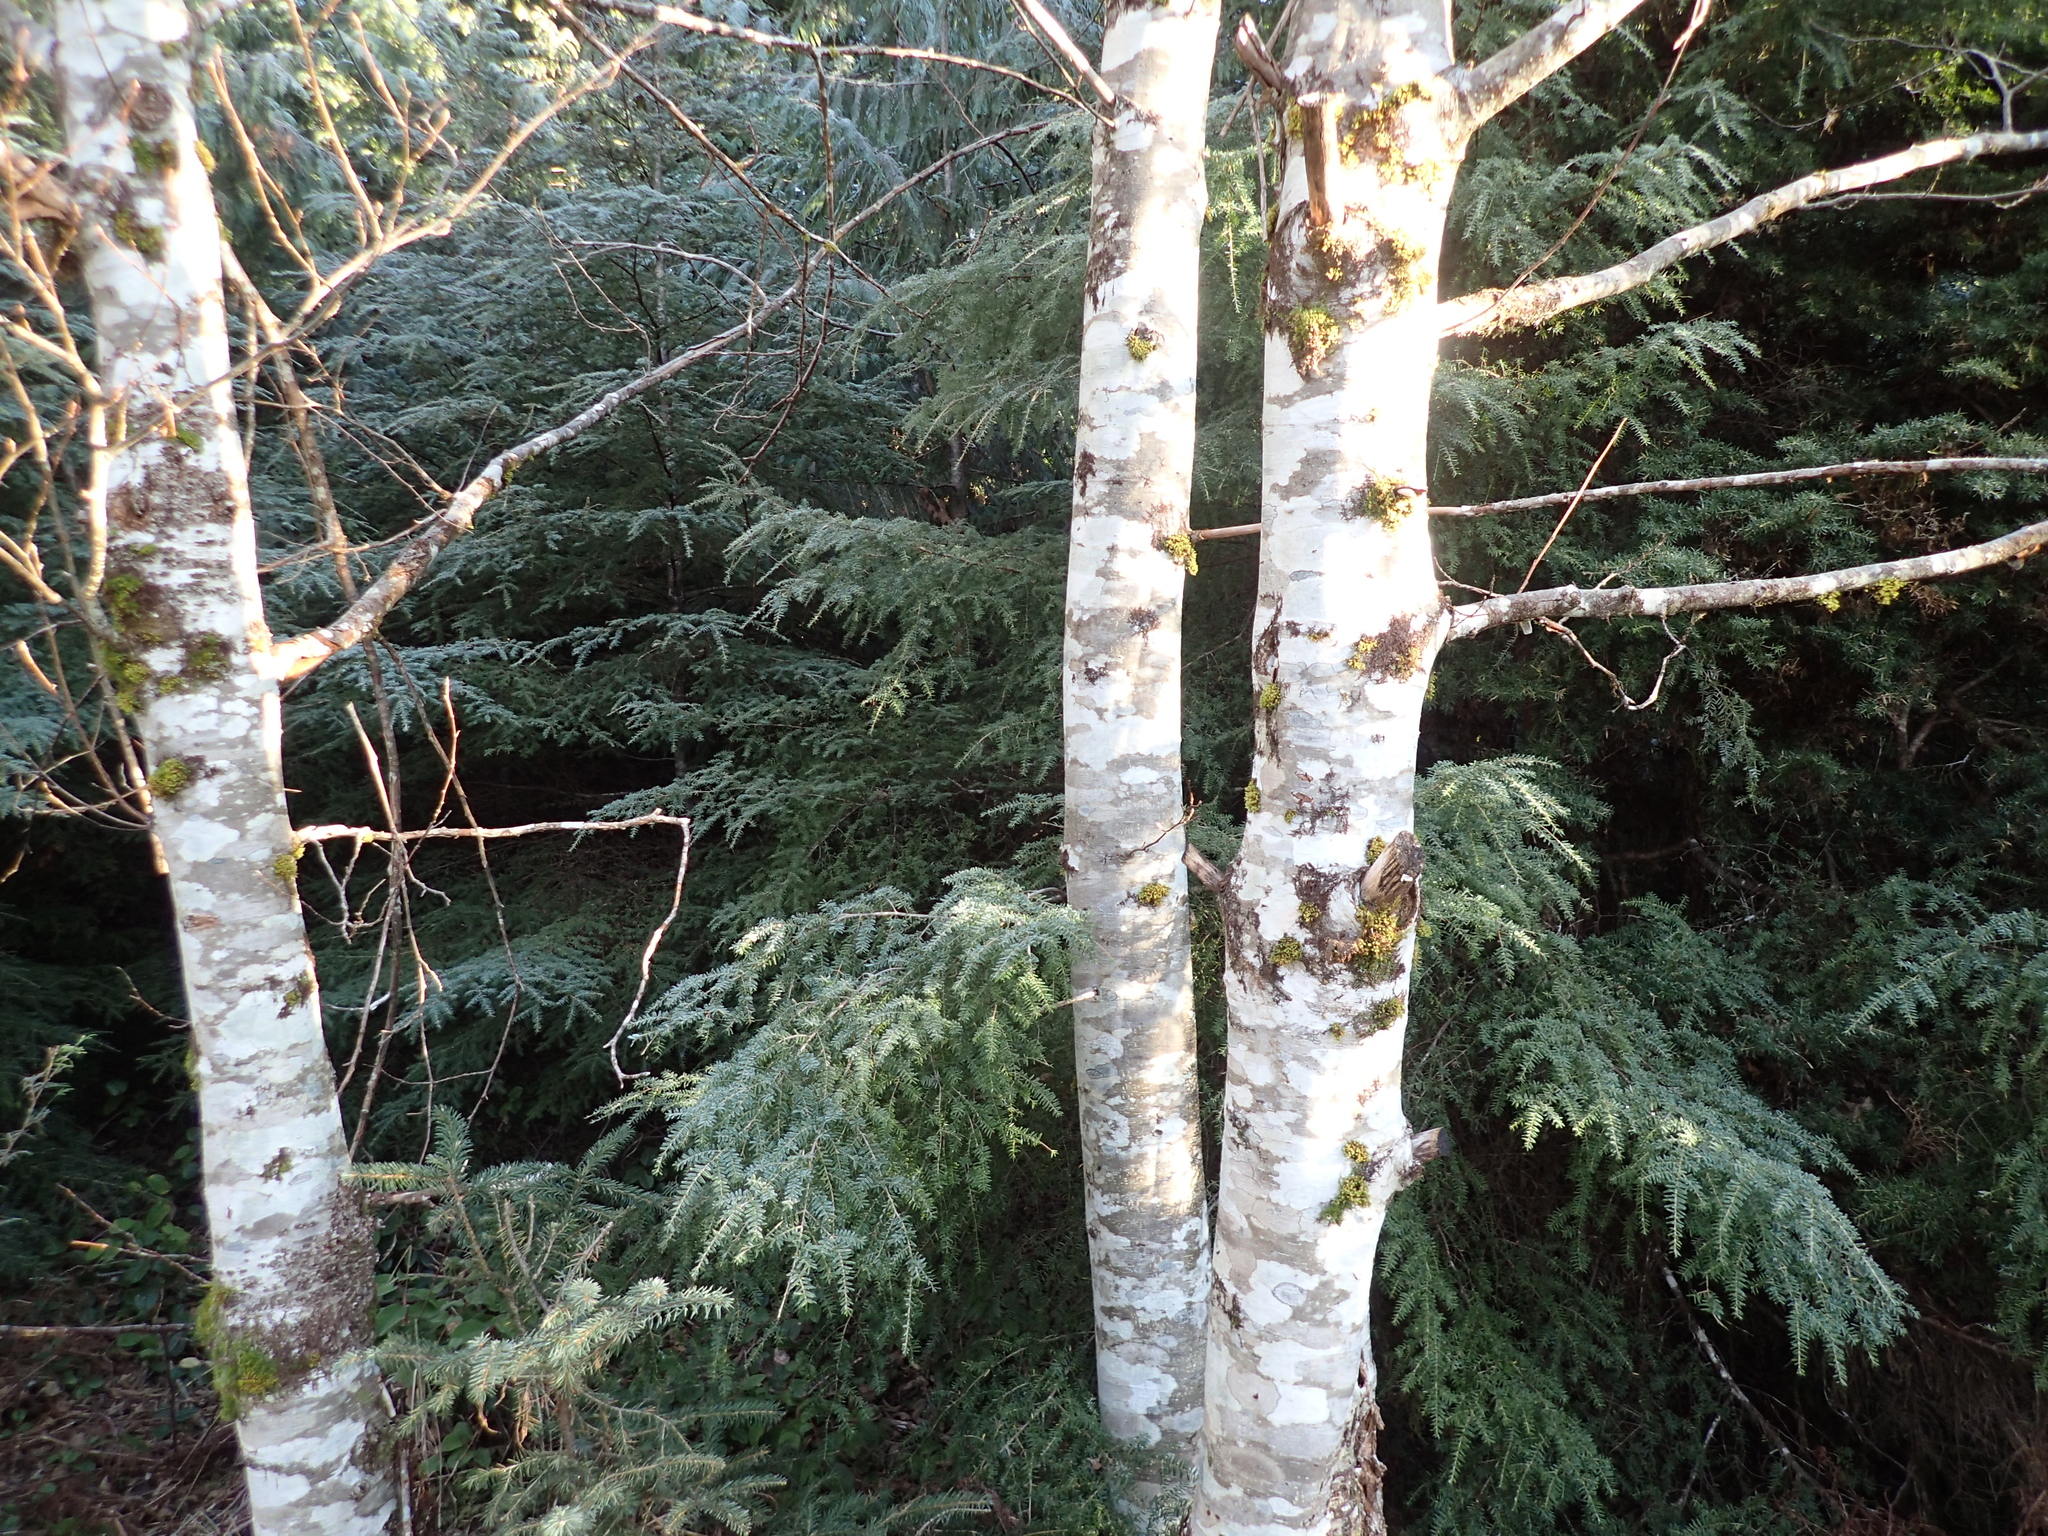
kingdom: Plantae
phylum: Tracheophyta
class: Magnoliopsida
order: Fagales
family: Betulaceae
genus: Alnus
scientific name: Alnus rubra
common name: Red alder
